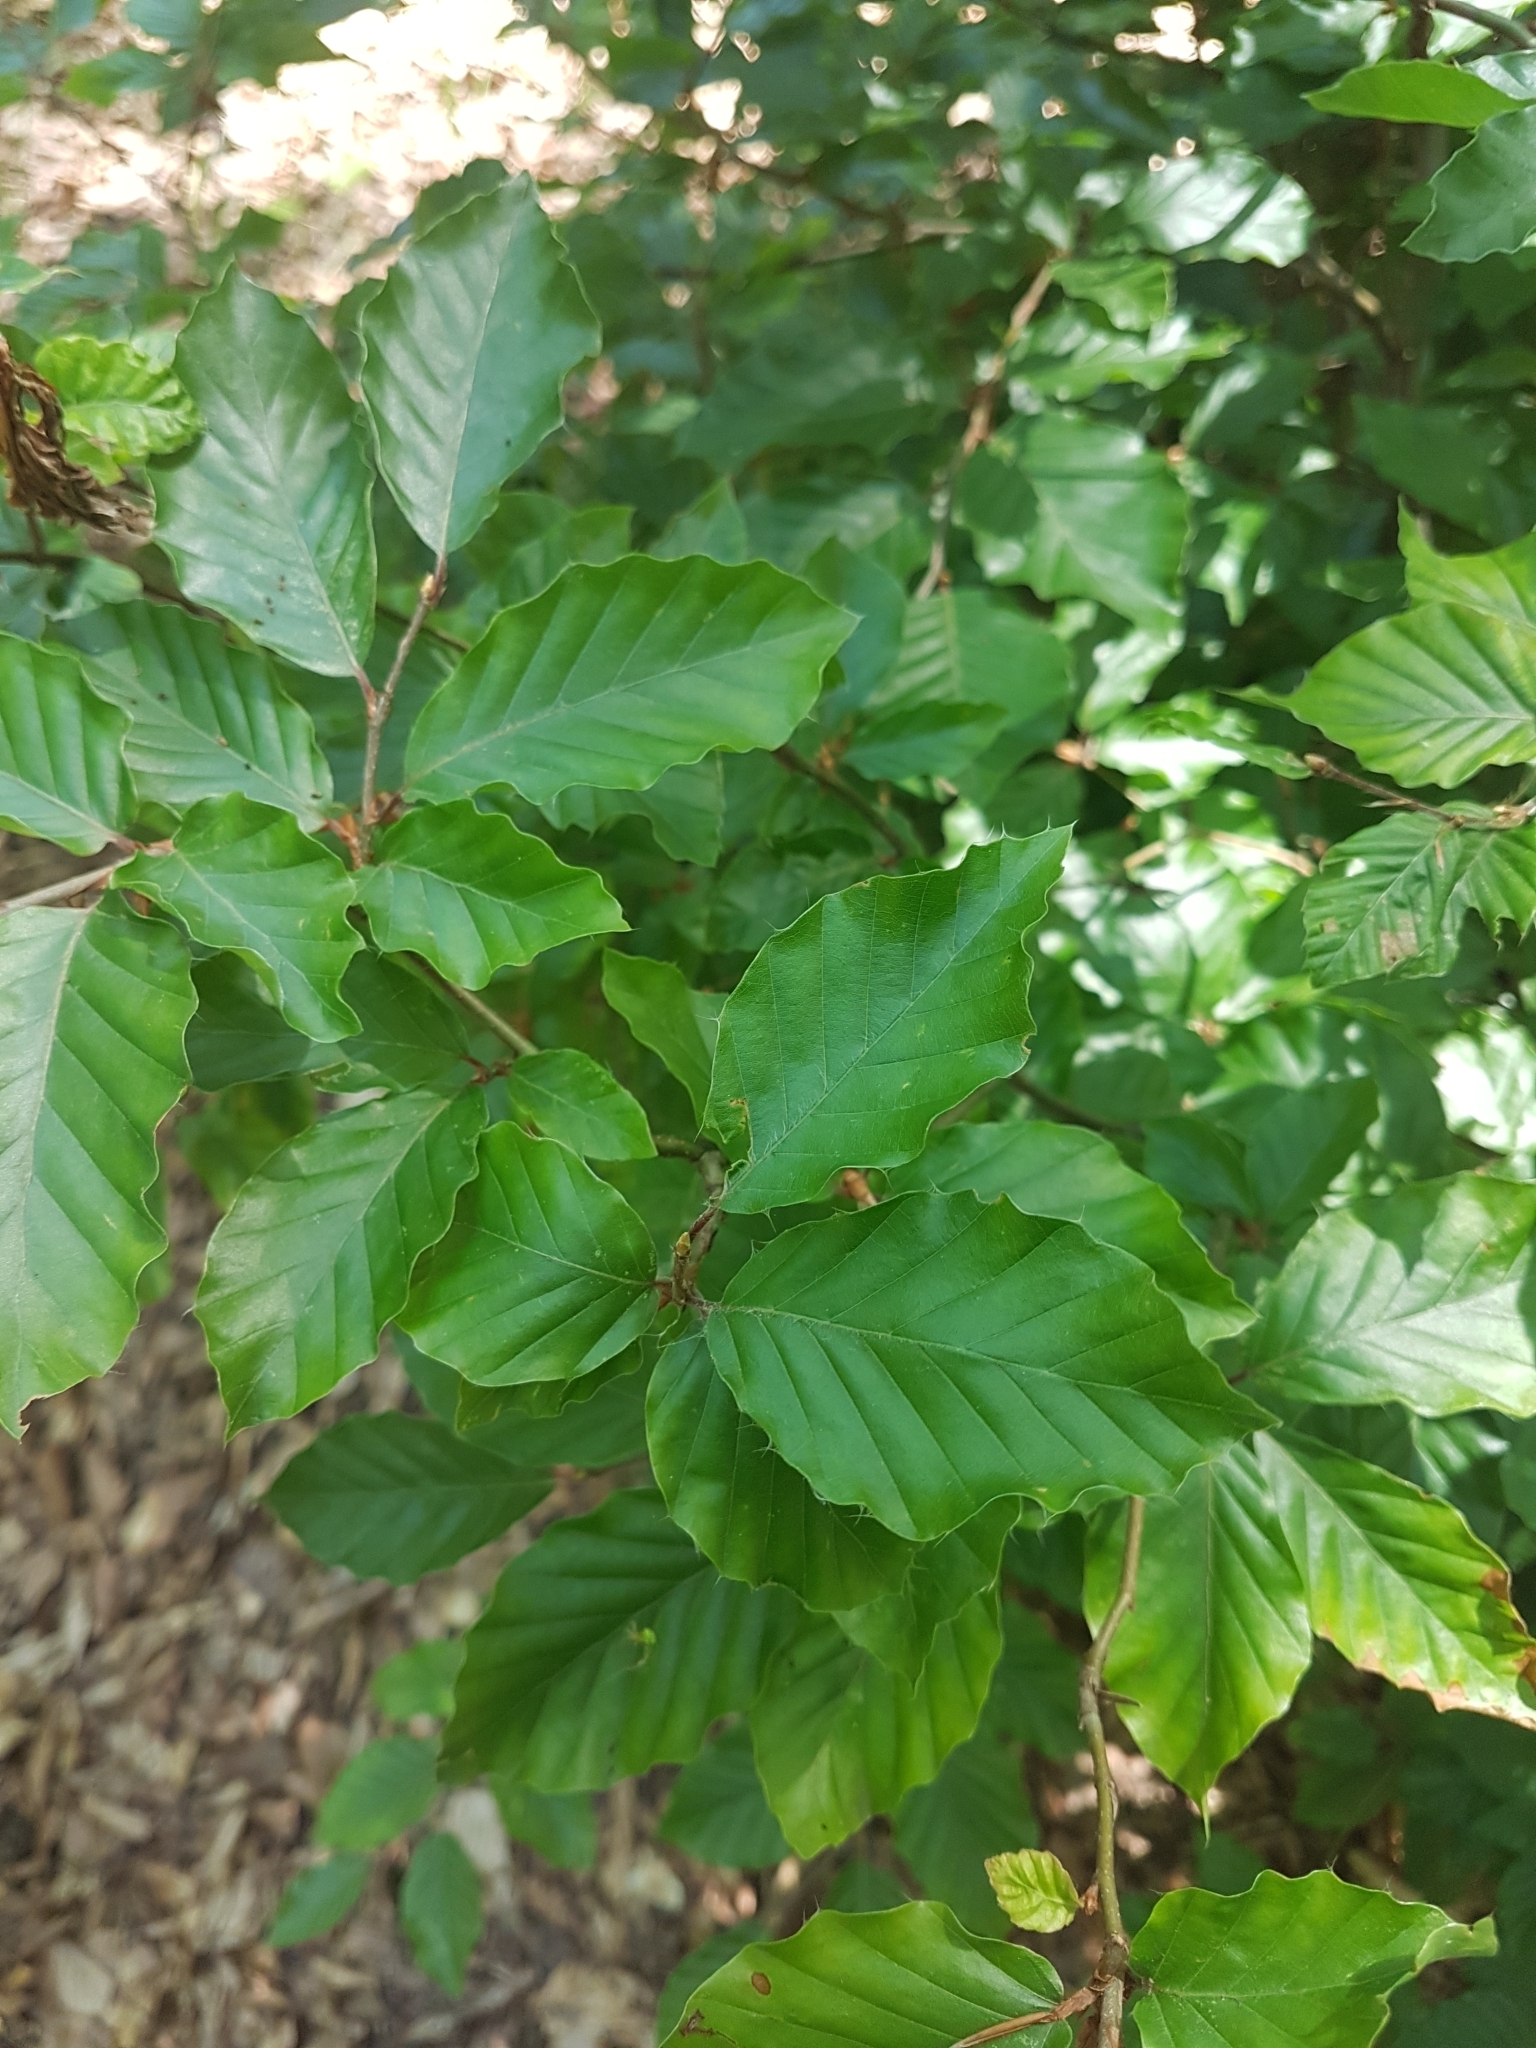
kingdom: Plantae
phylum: Tracheophyta
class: Magnoliopsida
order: Fagales
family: Fagaceae
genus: Fagus
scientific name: Fagus sylvatica
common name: Beech
